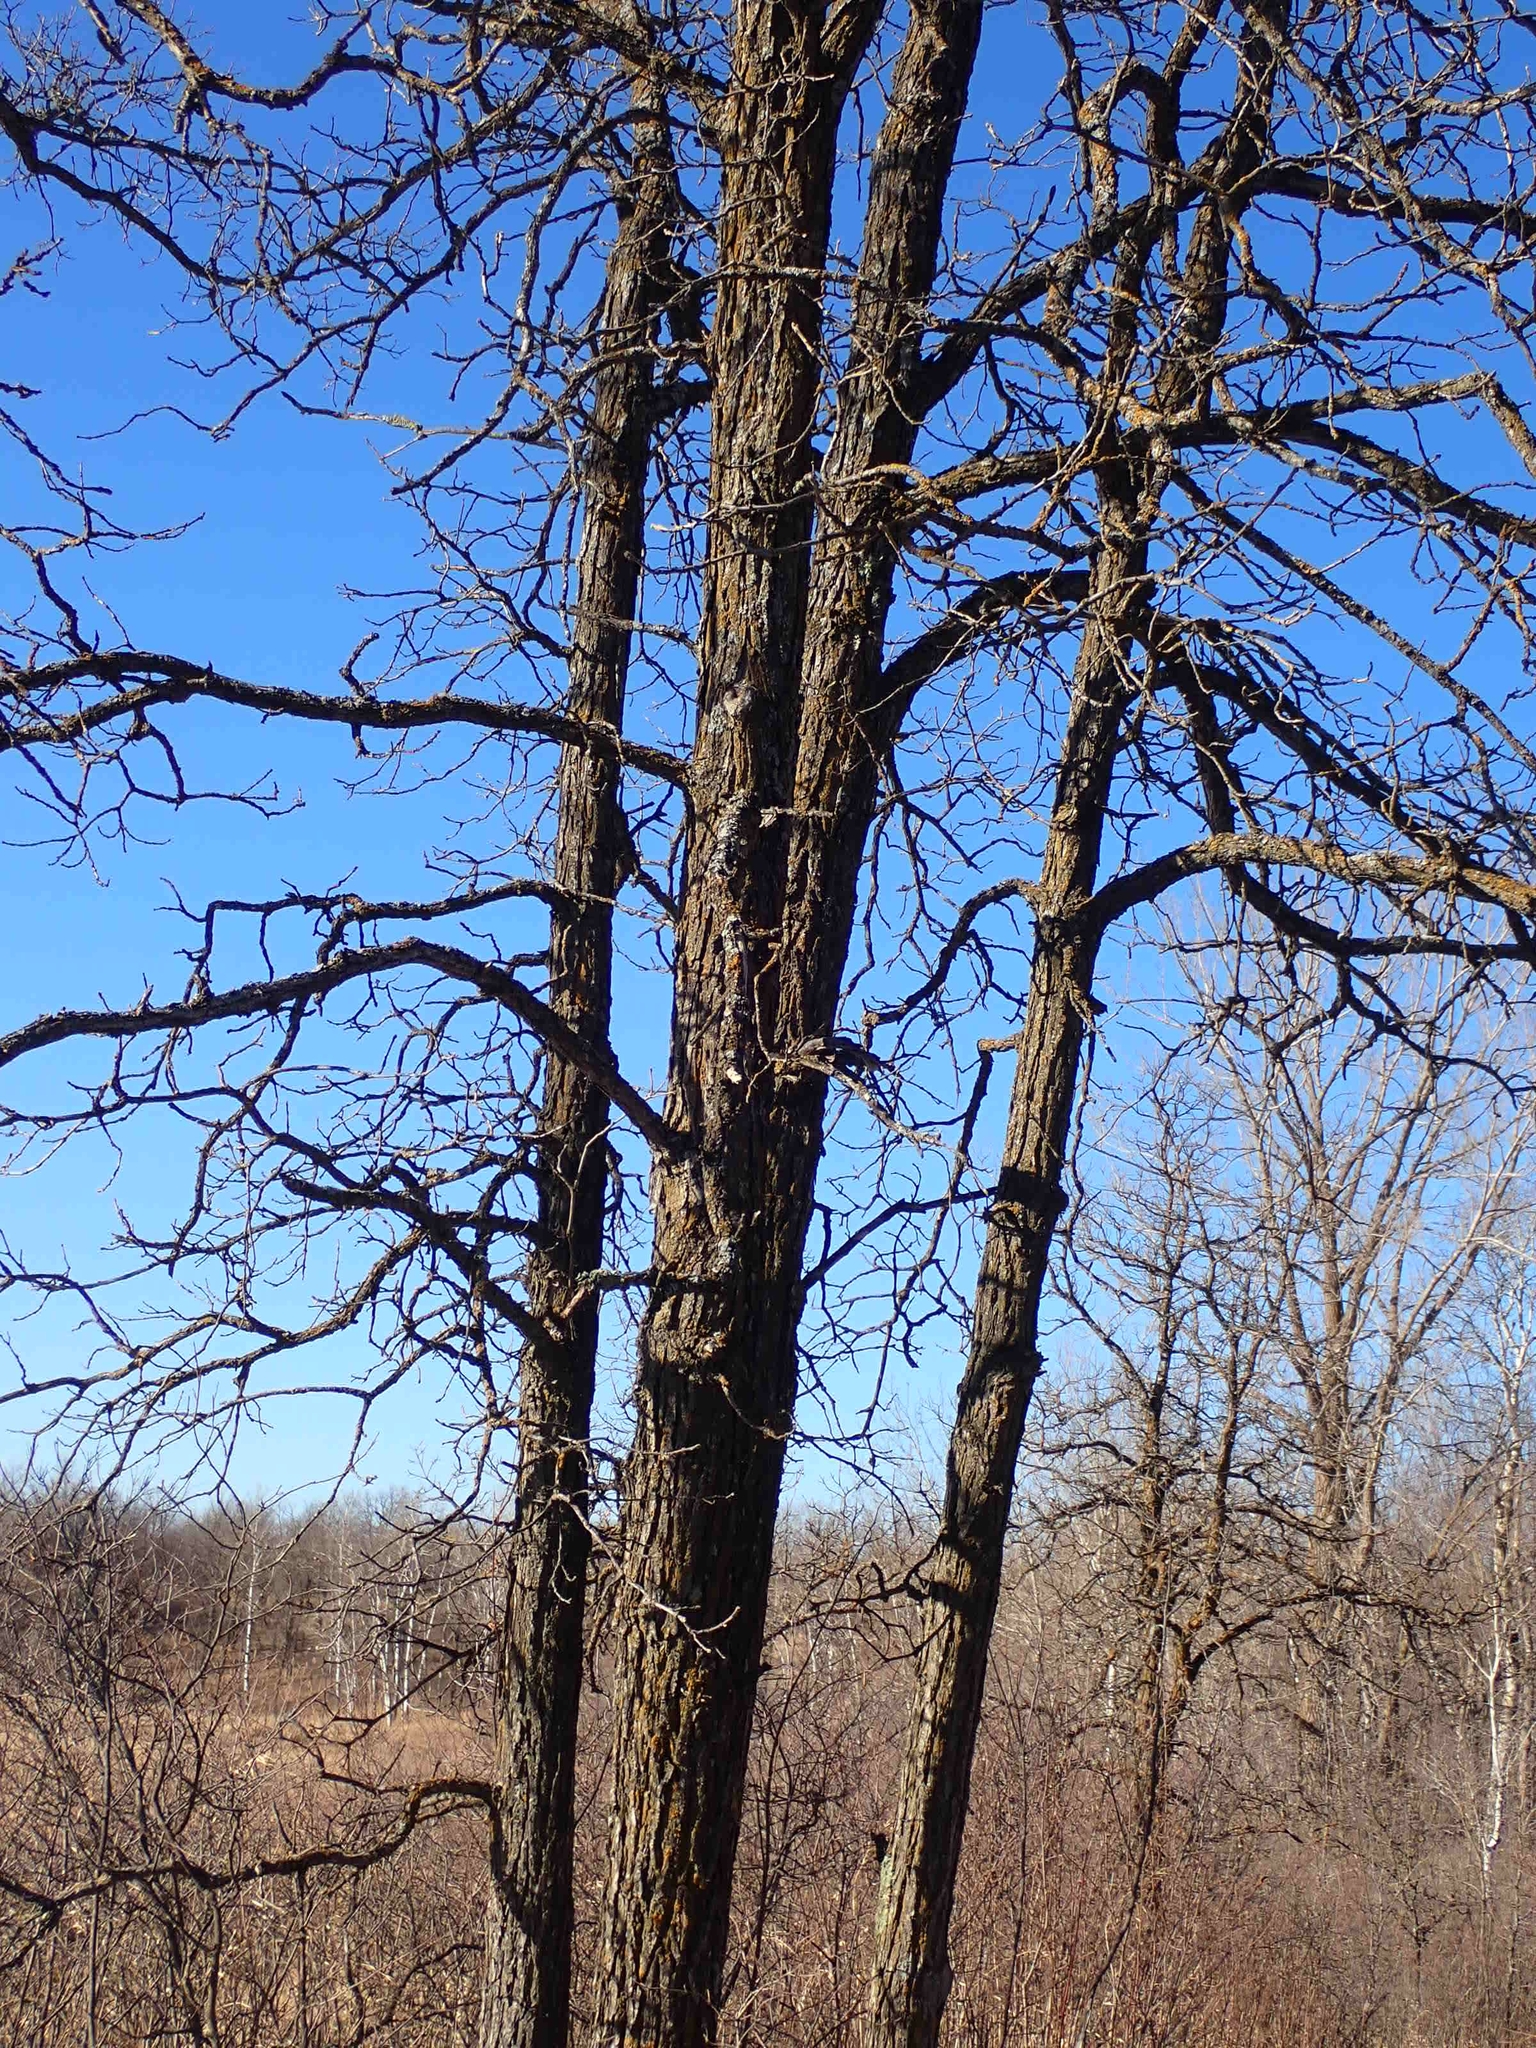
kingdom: Plantae
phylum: Tracheophyta
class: Magnoliopsida
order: Fagales
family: Fagaceae
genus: Quercus
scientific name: Quercus macrocarpa
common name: Bur oak
